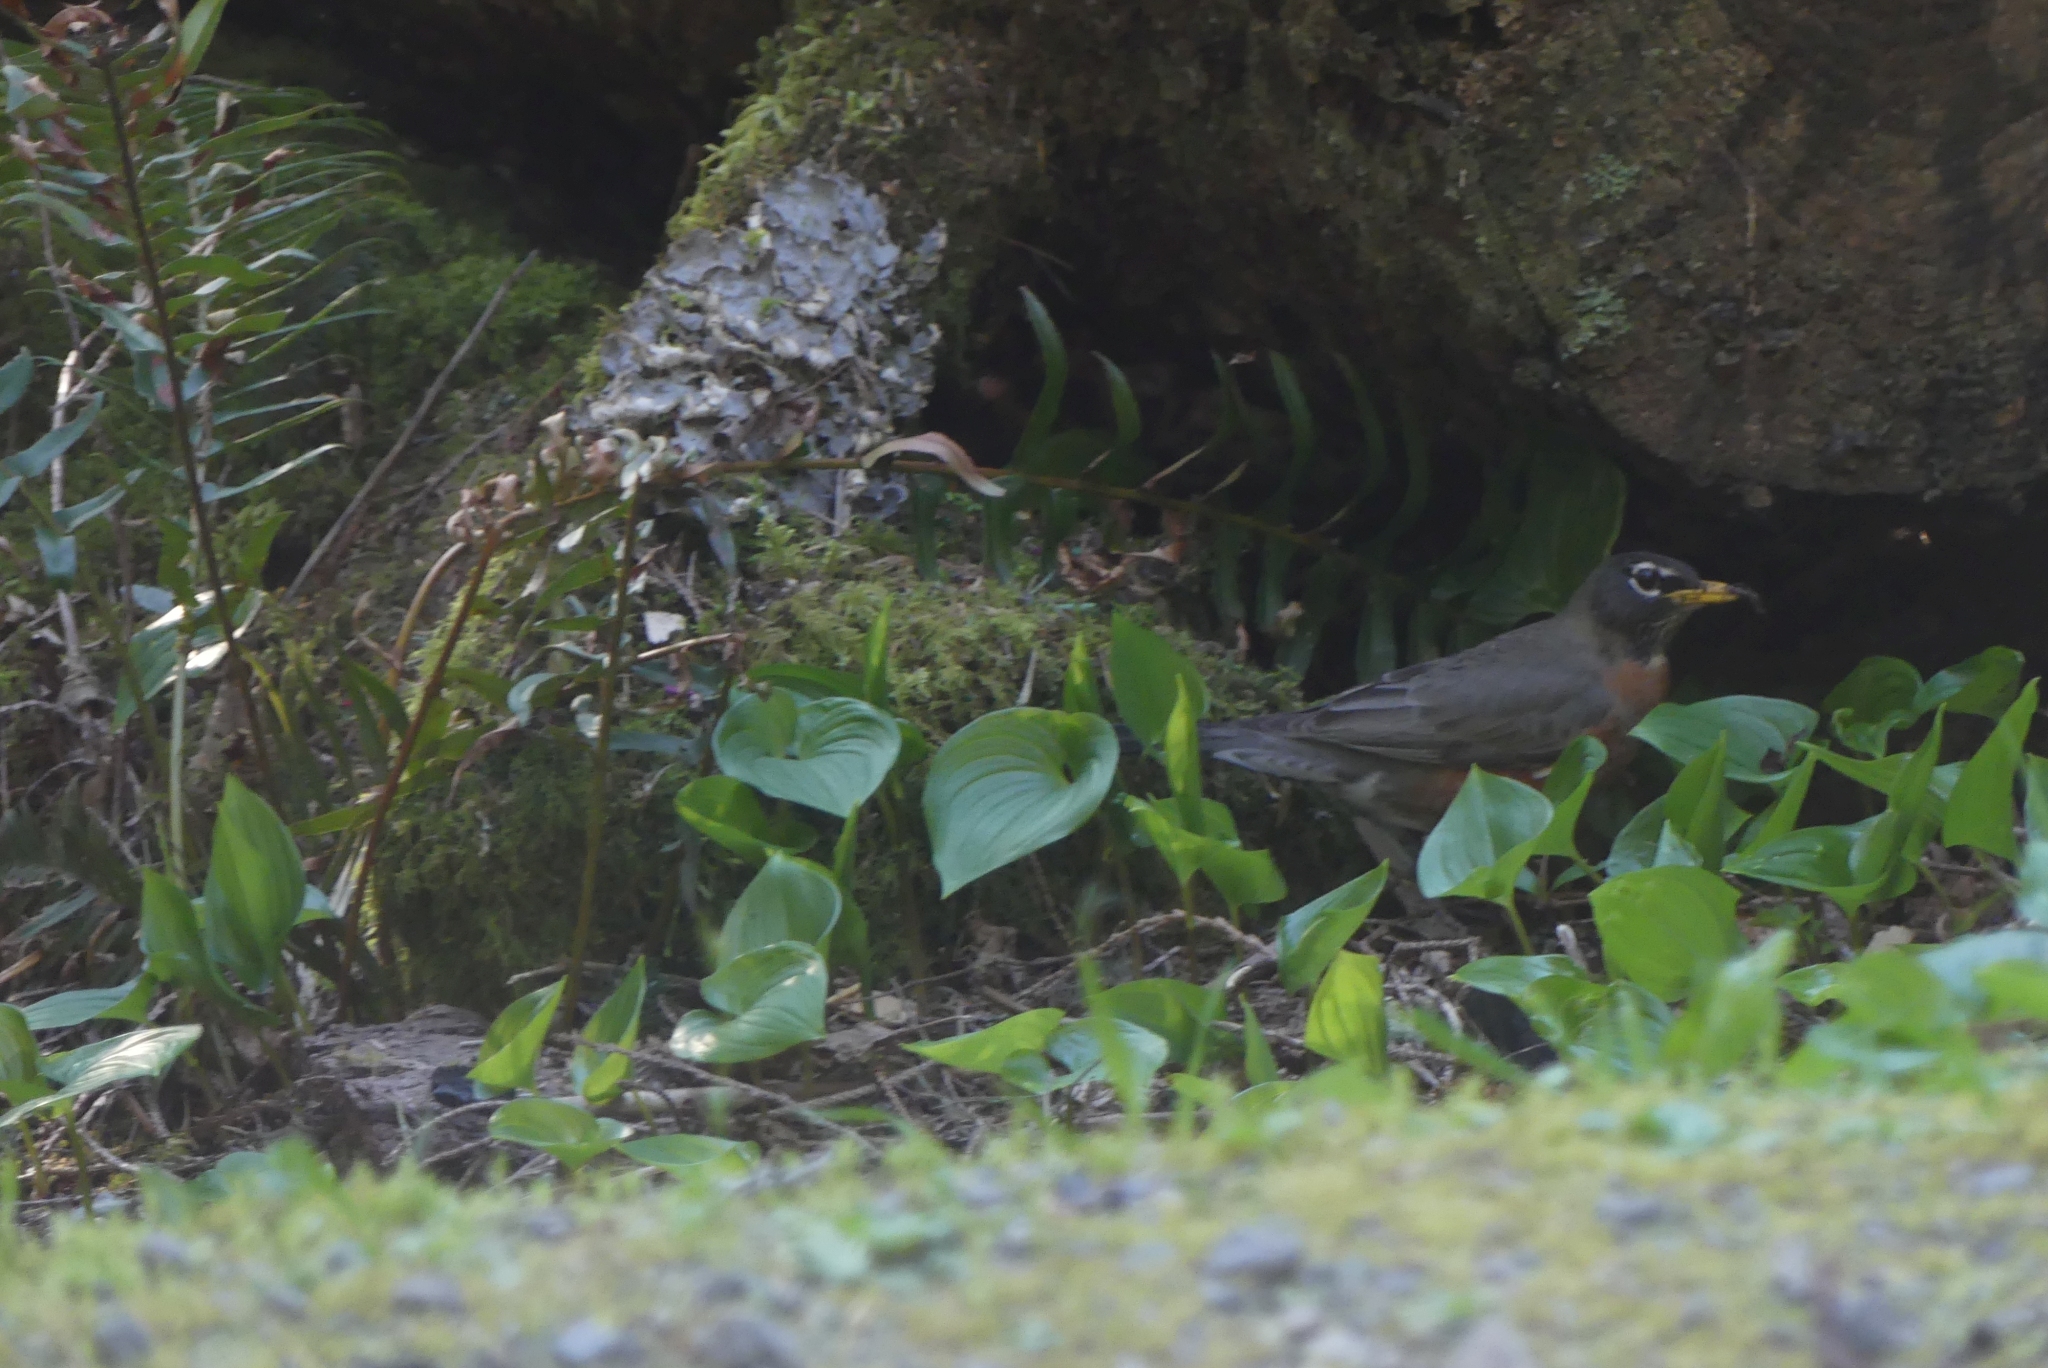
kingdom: Animalia
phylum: Chordata
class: Aves
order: Passeriformes
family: Turdidae
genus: Turdus
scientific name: Turdus migratorius
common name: American robin
